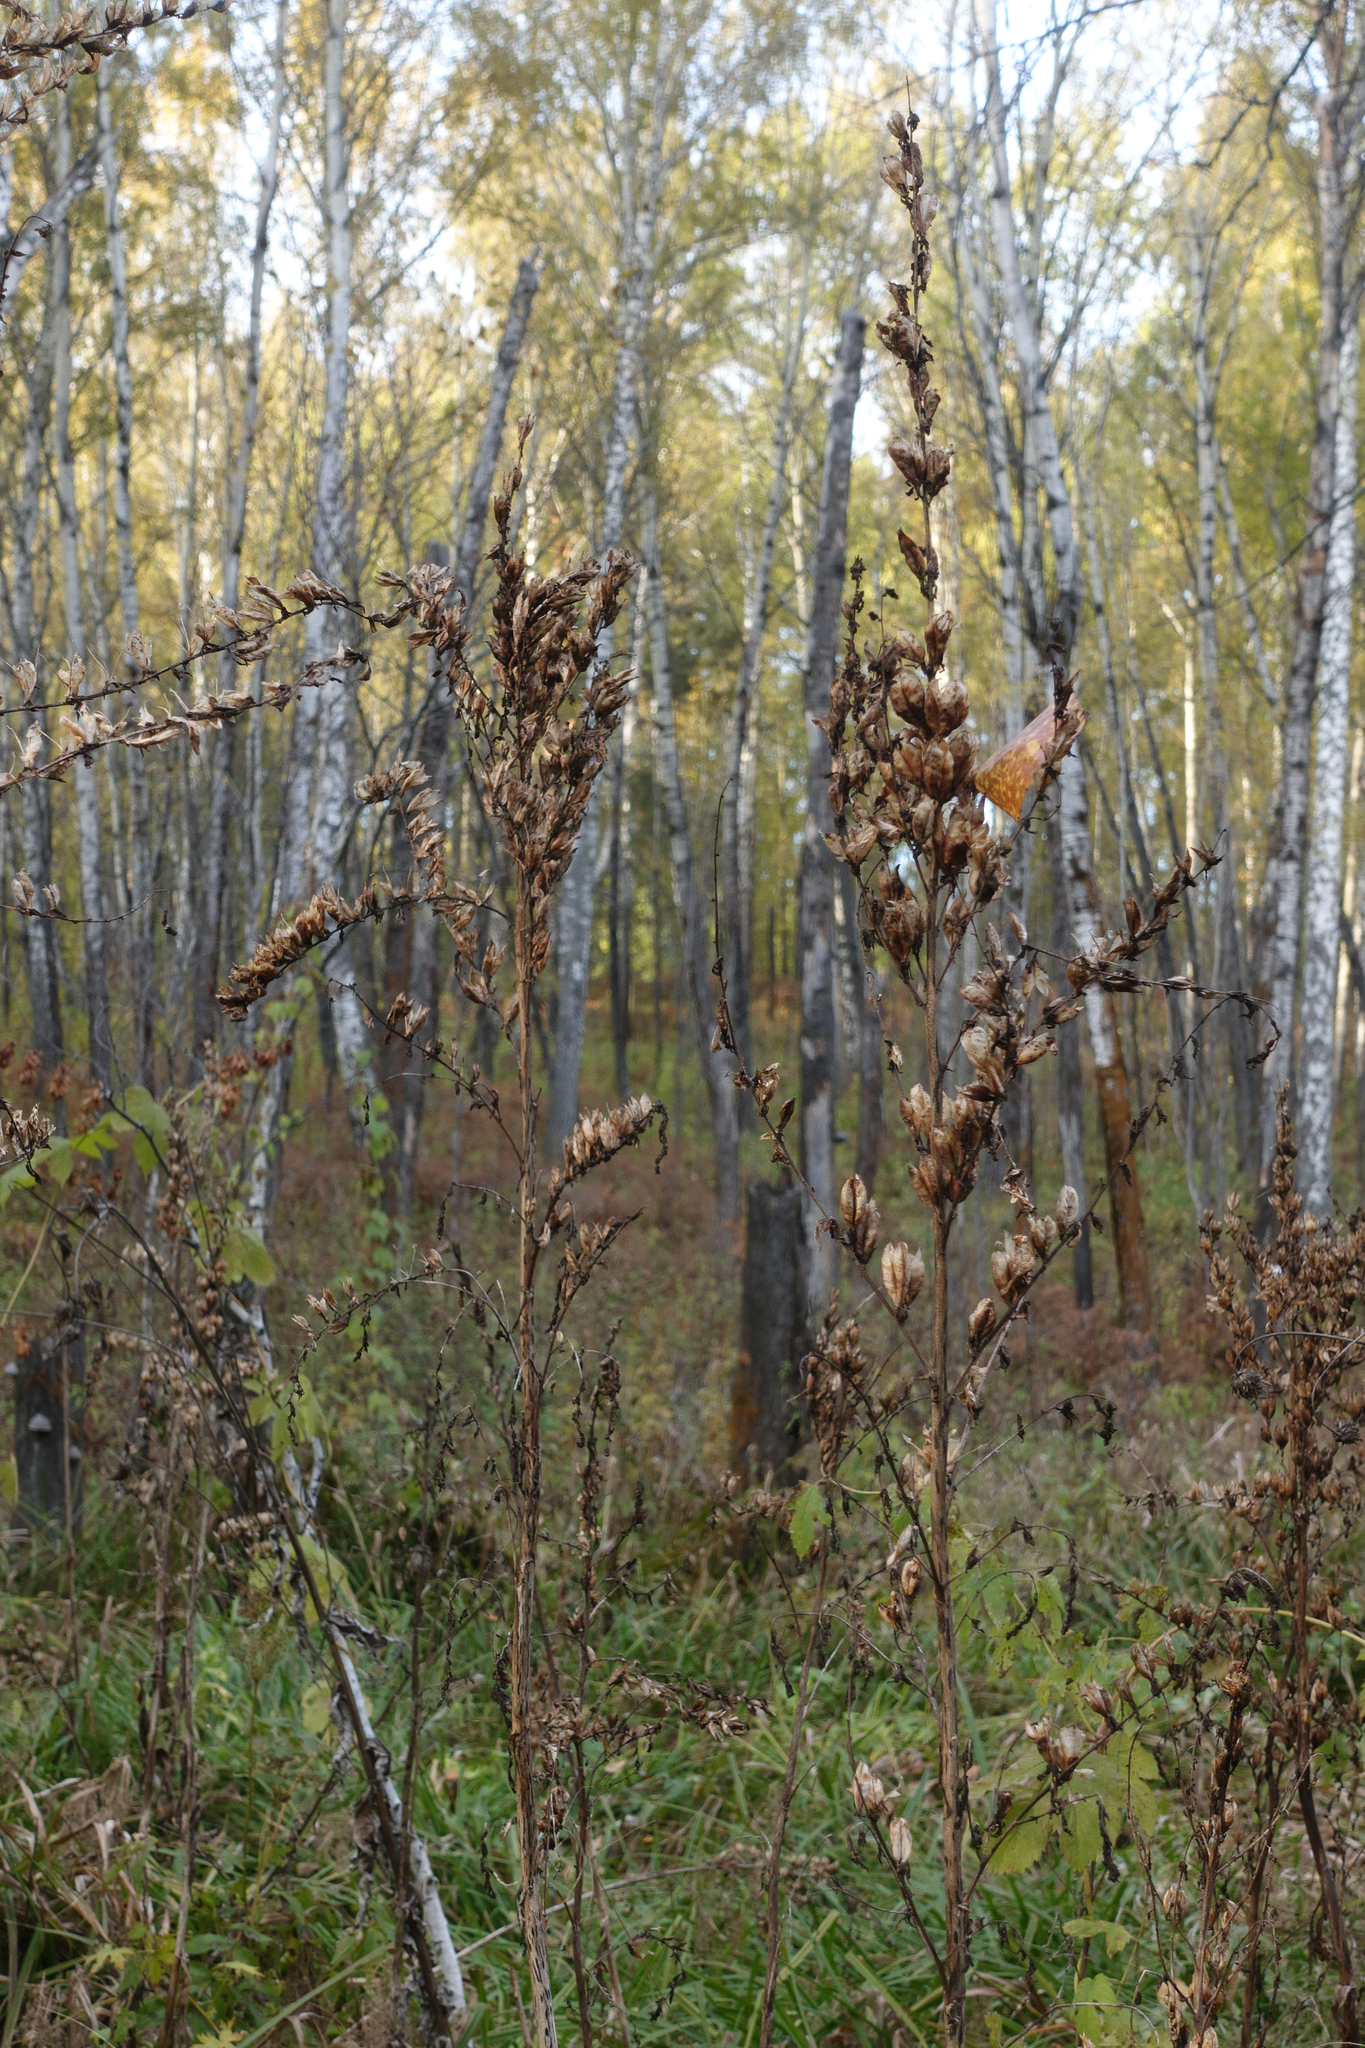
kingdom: Plantae
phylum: Tracheophyta
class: Liliopsida
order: Liliales
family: Melanthiaceae
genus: Veratrum
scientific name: Veratrum lobelianum
